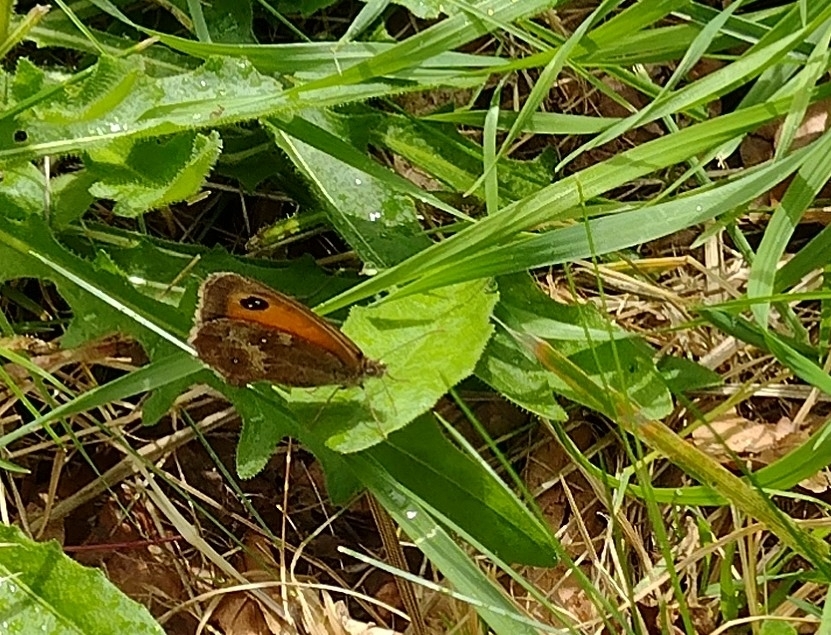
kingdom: Animalia
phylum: Arthropoda
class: Insecta
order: Lepidoptera
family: Nymphalidae
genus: Pyronia
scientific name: Pyronia tithonus
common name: Gatekeeper
